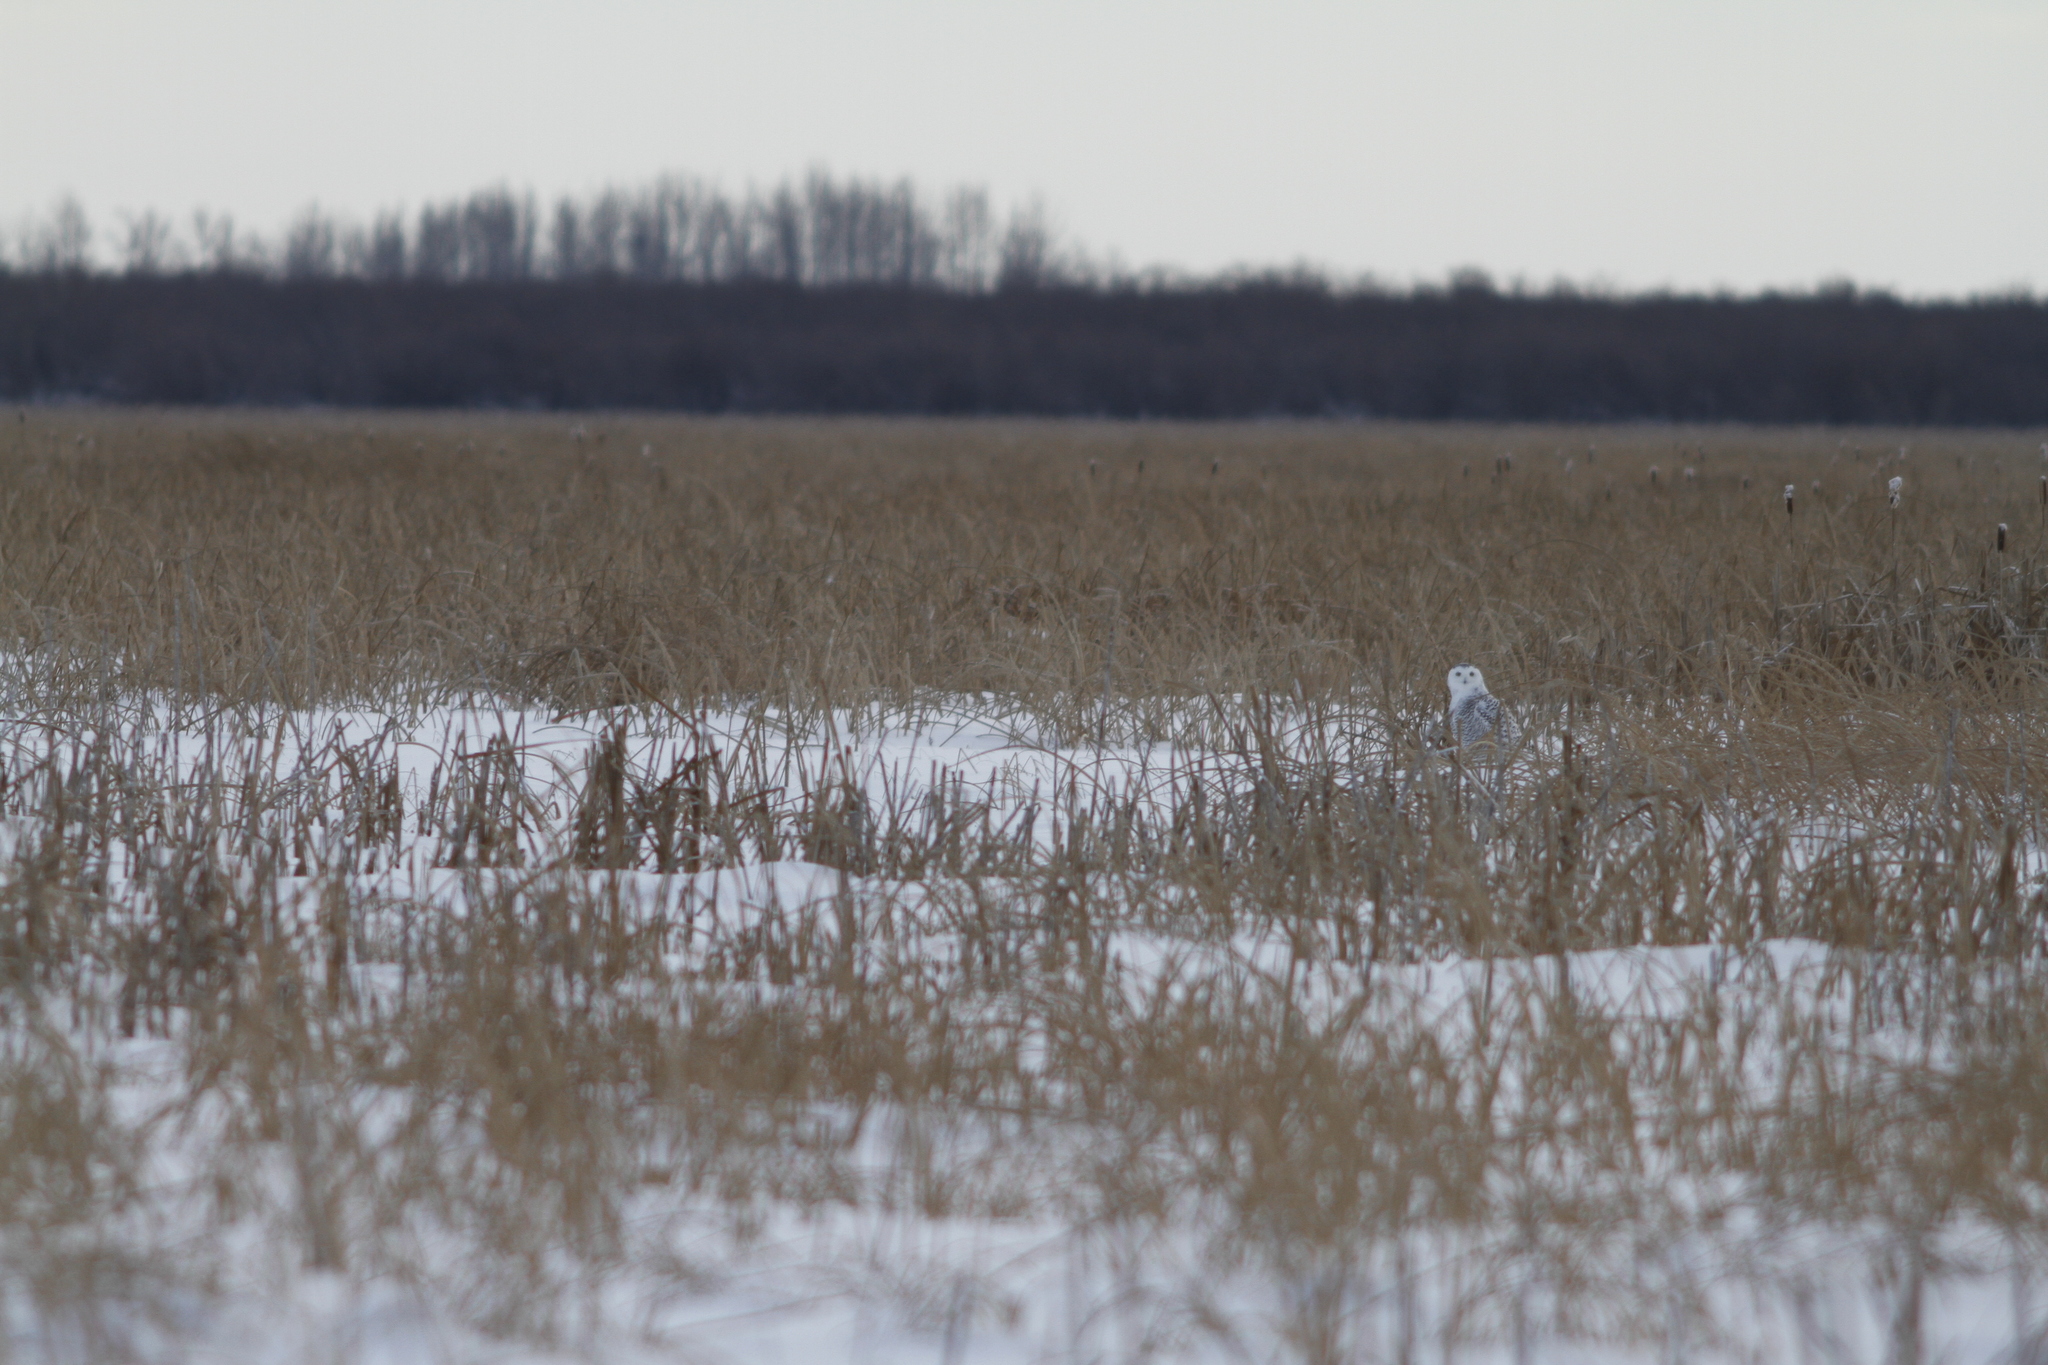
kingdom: Animalia
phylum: Chordata
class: Aves
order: Strigiformes
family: Strigidae
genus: Bubo
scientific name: Bubo scandiacus
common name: Snowy owl
